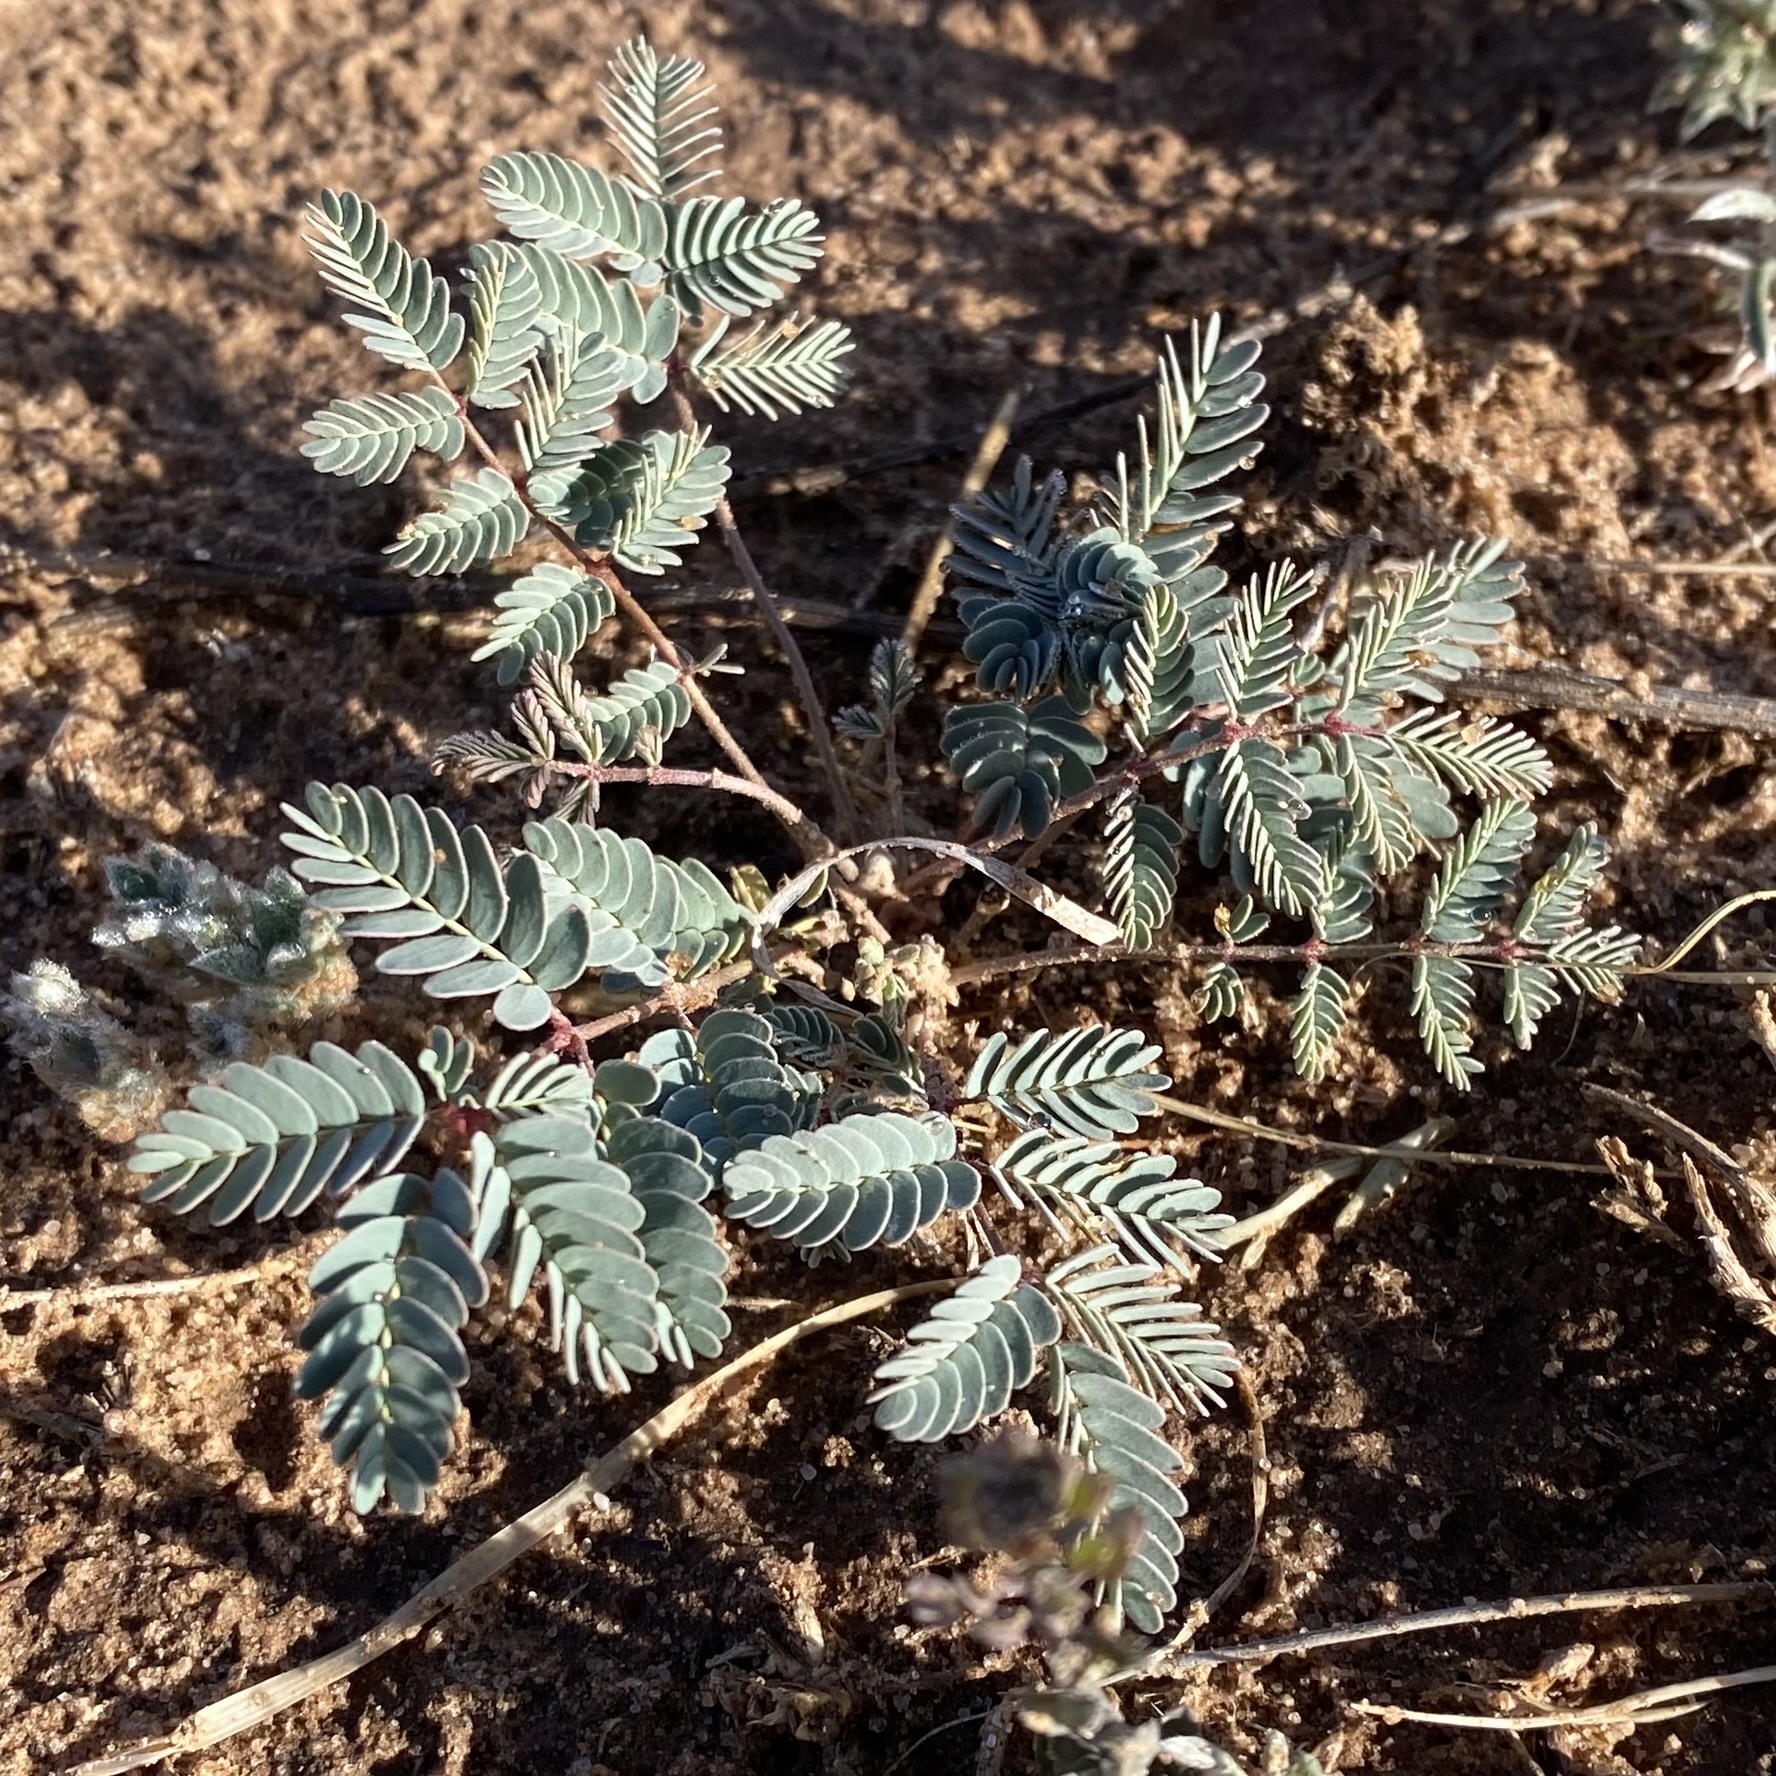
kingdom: Plantae
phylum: Tracheophyta
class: Magnoliopsida
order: Fabales
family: Fabaceae
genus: Hoffmannseggia
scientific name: Hoffmannseggia glauca
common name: Pignut
